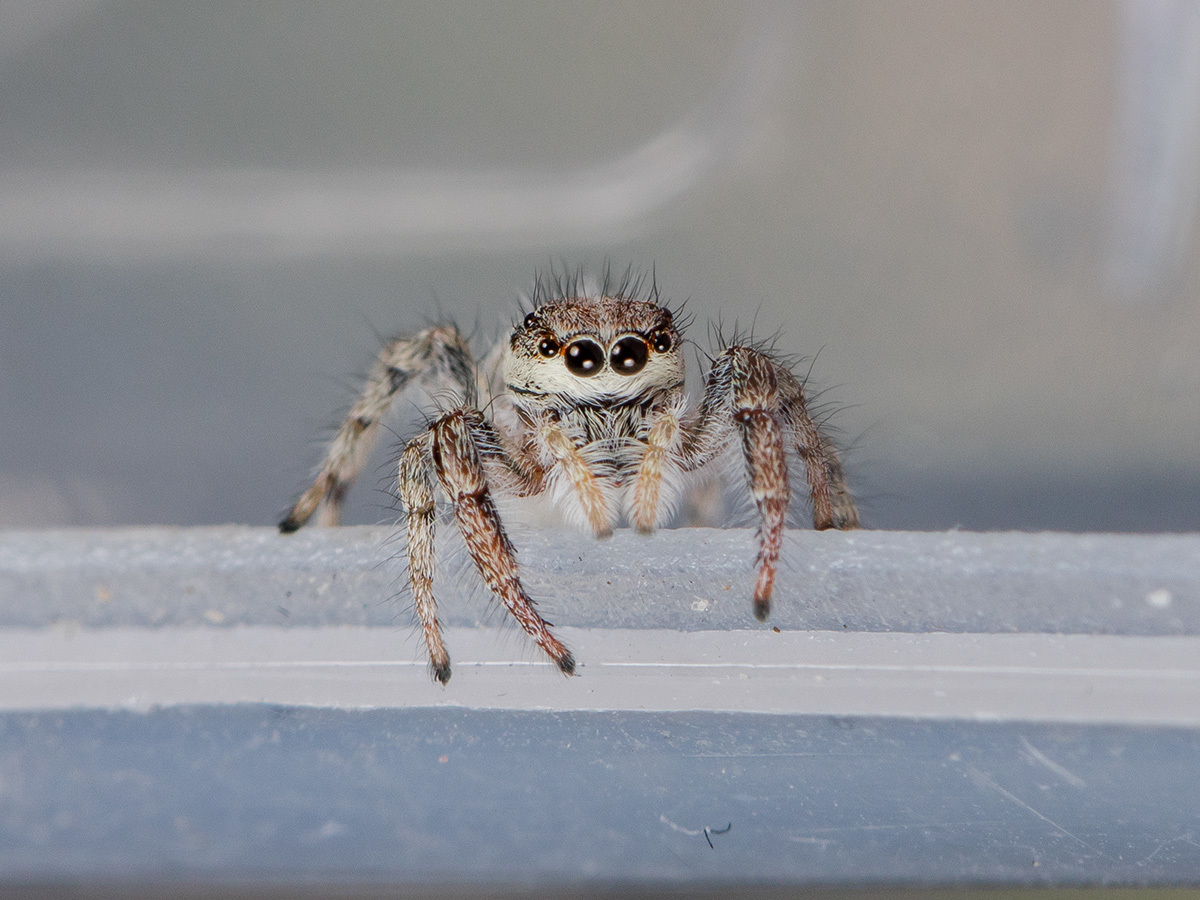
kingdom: Animalia
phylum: Arthropoda
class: Arachnida
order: Araneae
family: Salticidae
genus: Pseudicius
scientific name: Pseudicius courtauldi
